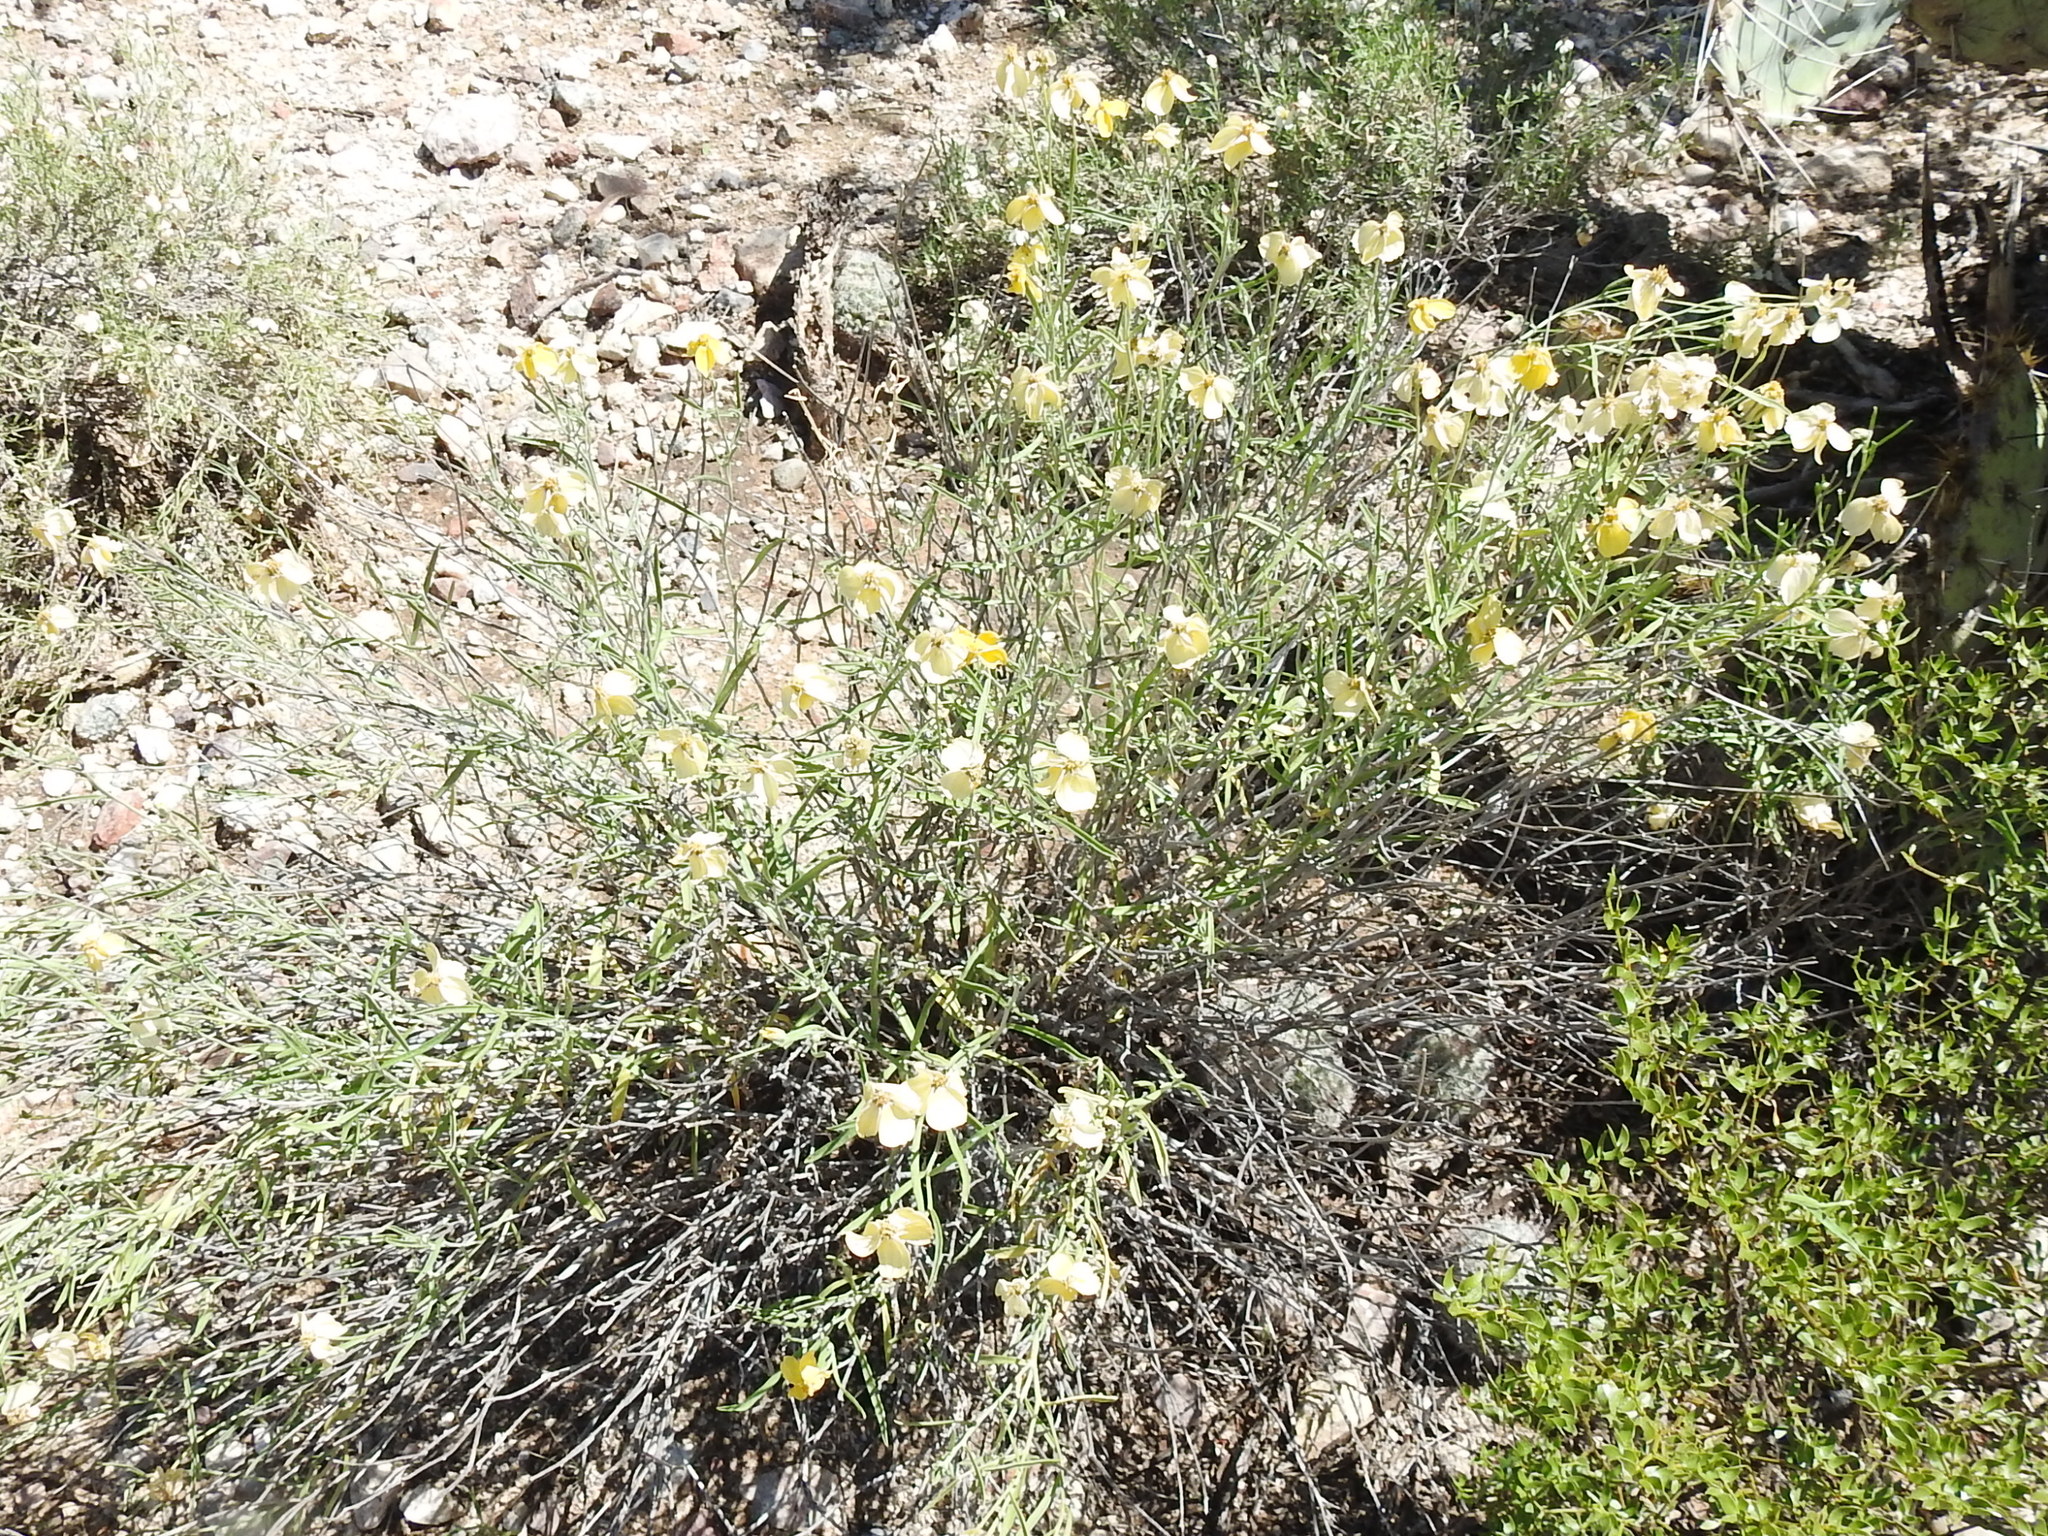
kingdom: Plantae
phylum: Tracheophyta
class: Magnoliopsida
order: Asterales
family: Asteraceae
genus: Psilostrophe
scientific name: Psilostrophe cooperi
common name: White-stem paper-flower
